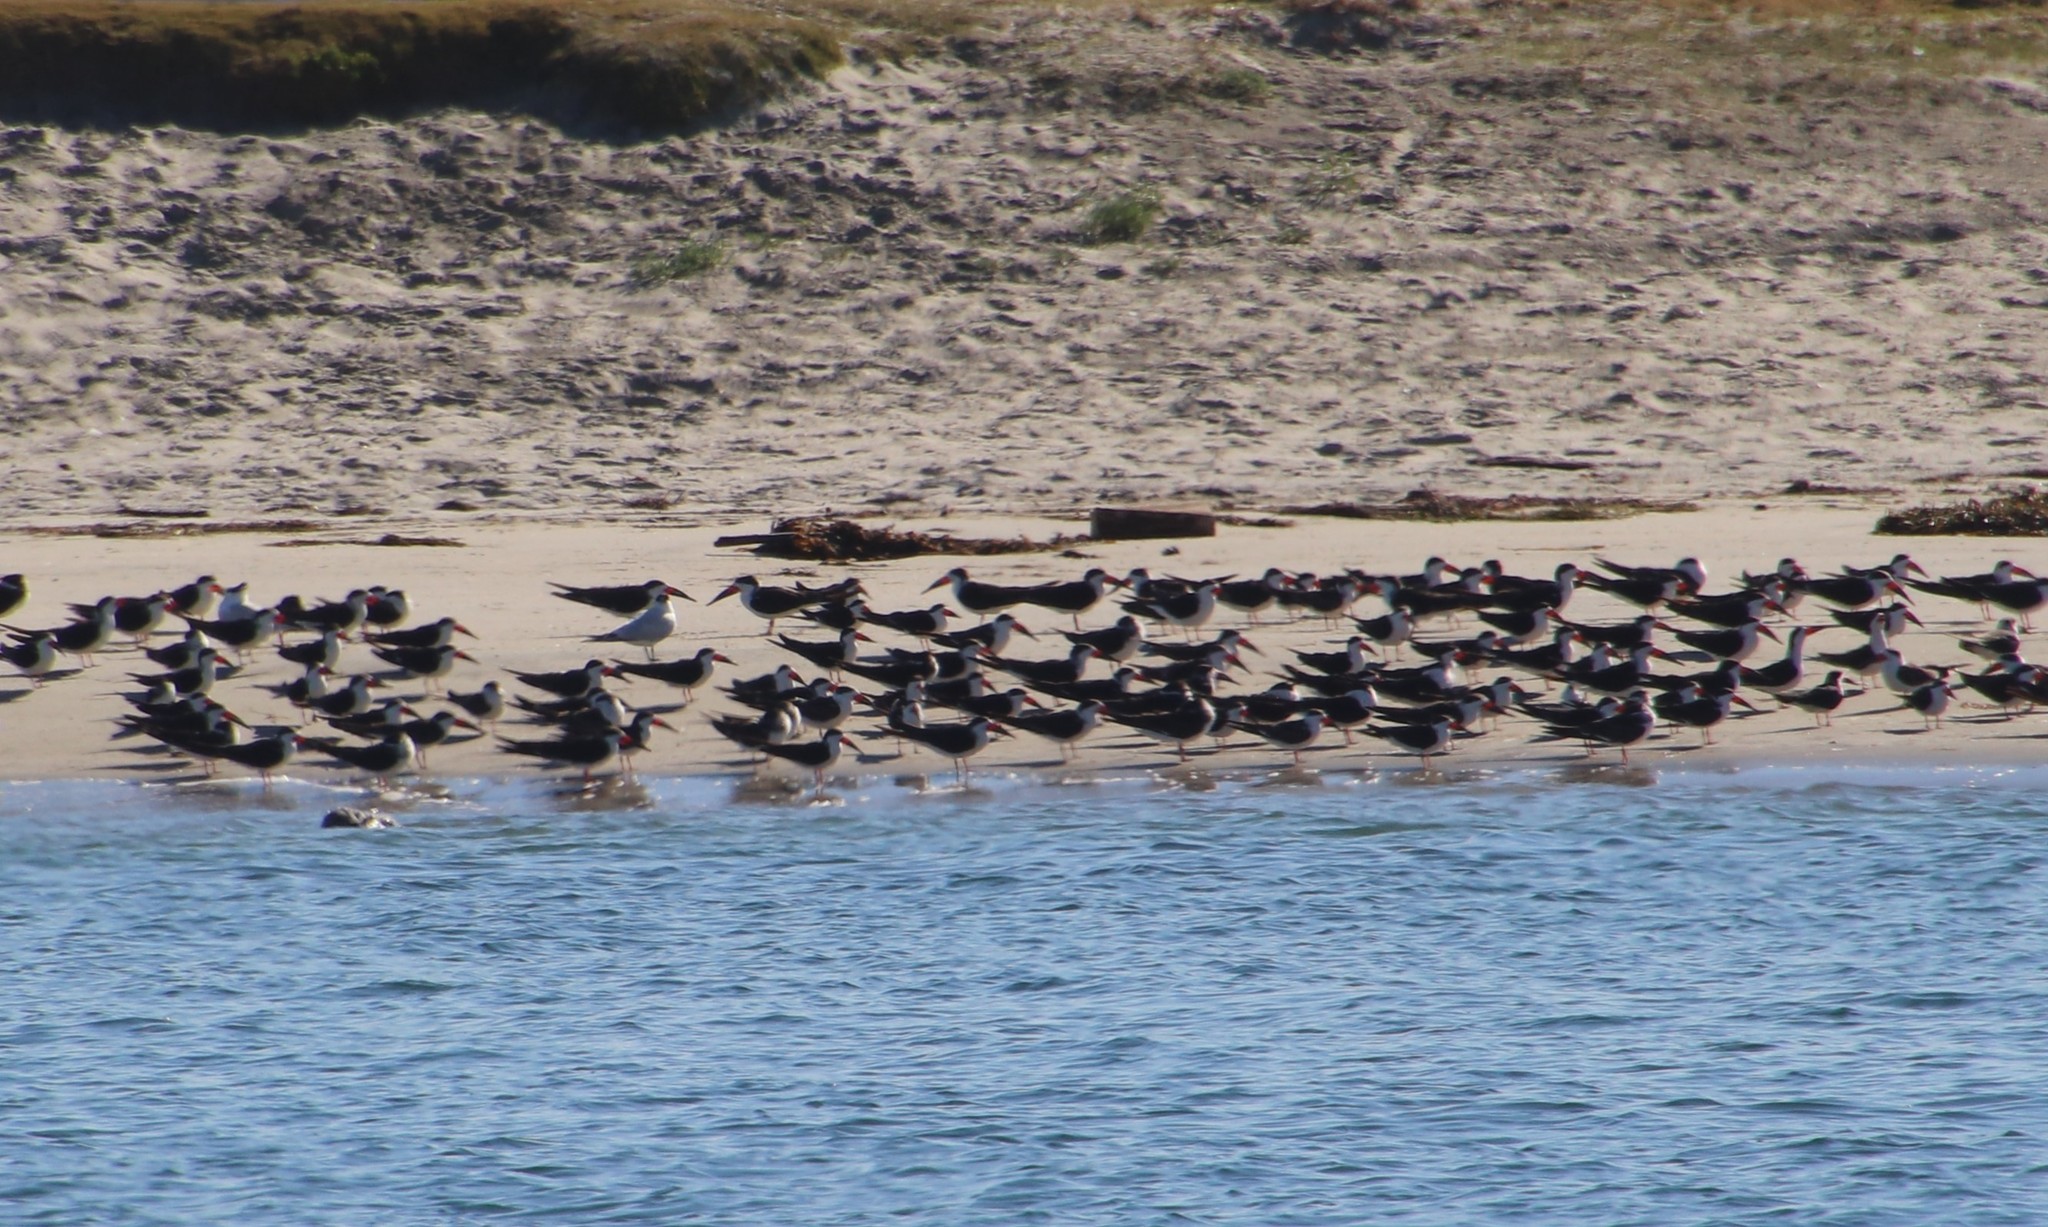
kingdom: Animalia
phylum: Chordata
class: Aves
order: Charadriiformes
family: Laridae
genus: Rynchops
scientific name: Rynchops niger
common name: Black skimmer
